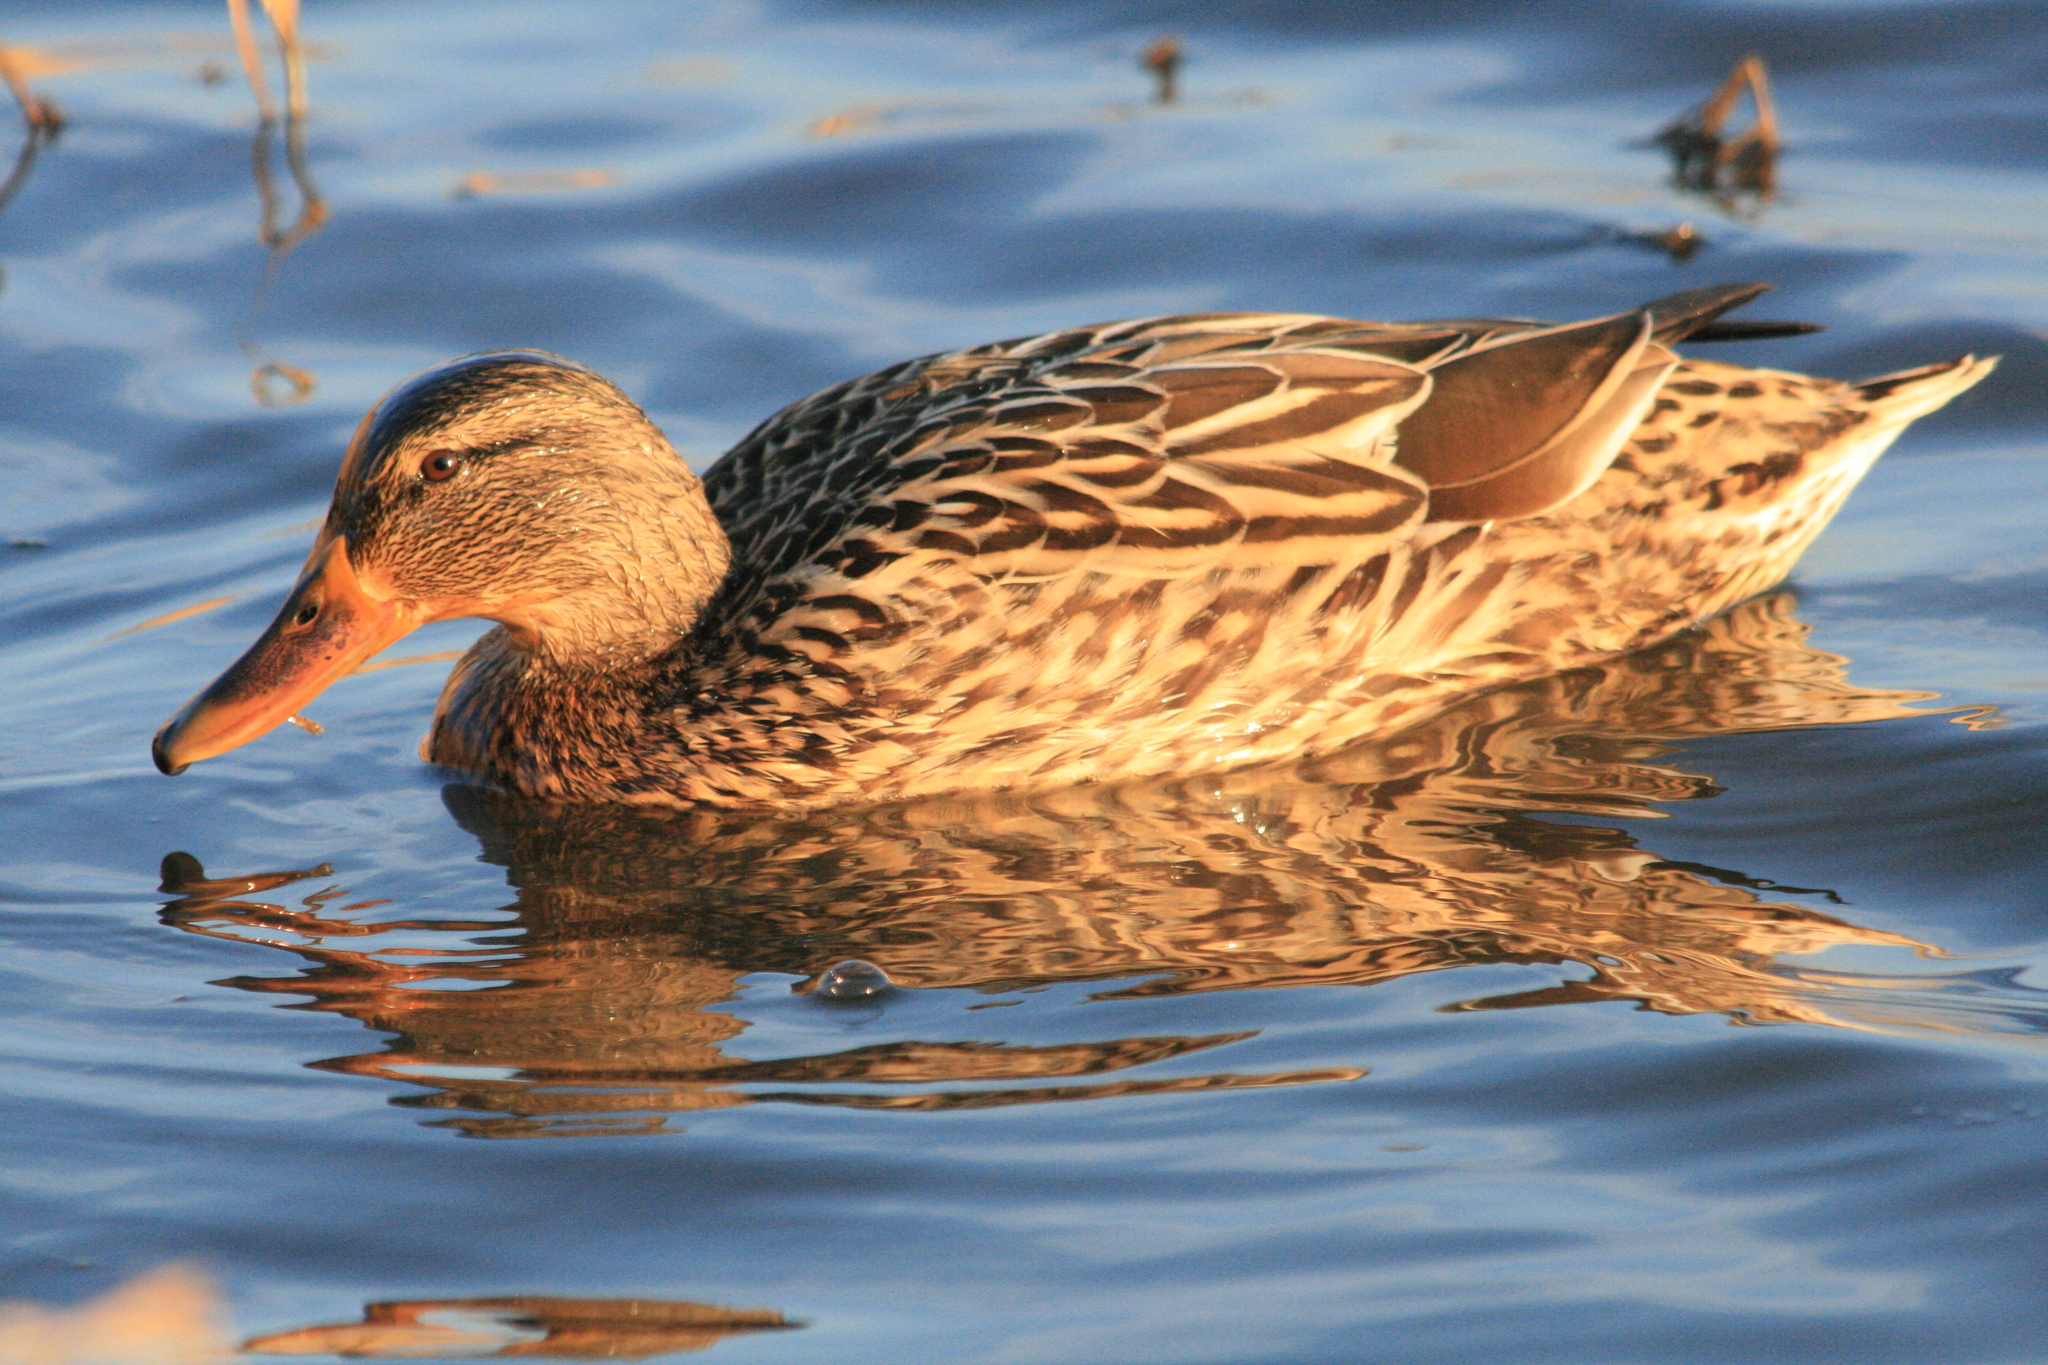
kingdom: Animalia
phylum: Chordata
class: Aves
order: Anseriformes
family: Anatidae
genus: Anas
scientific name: Anas platyrhynchos
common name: Mallard
